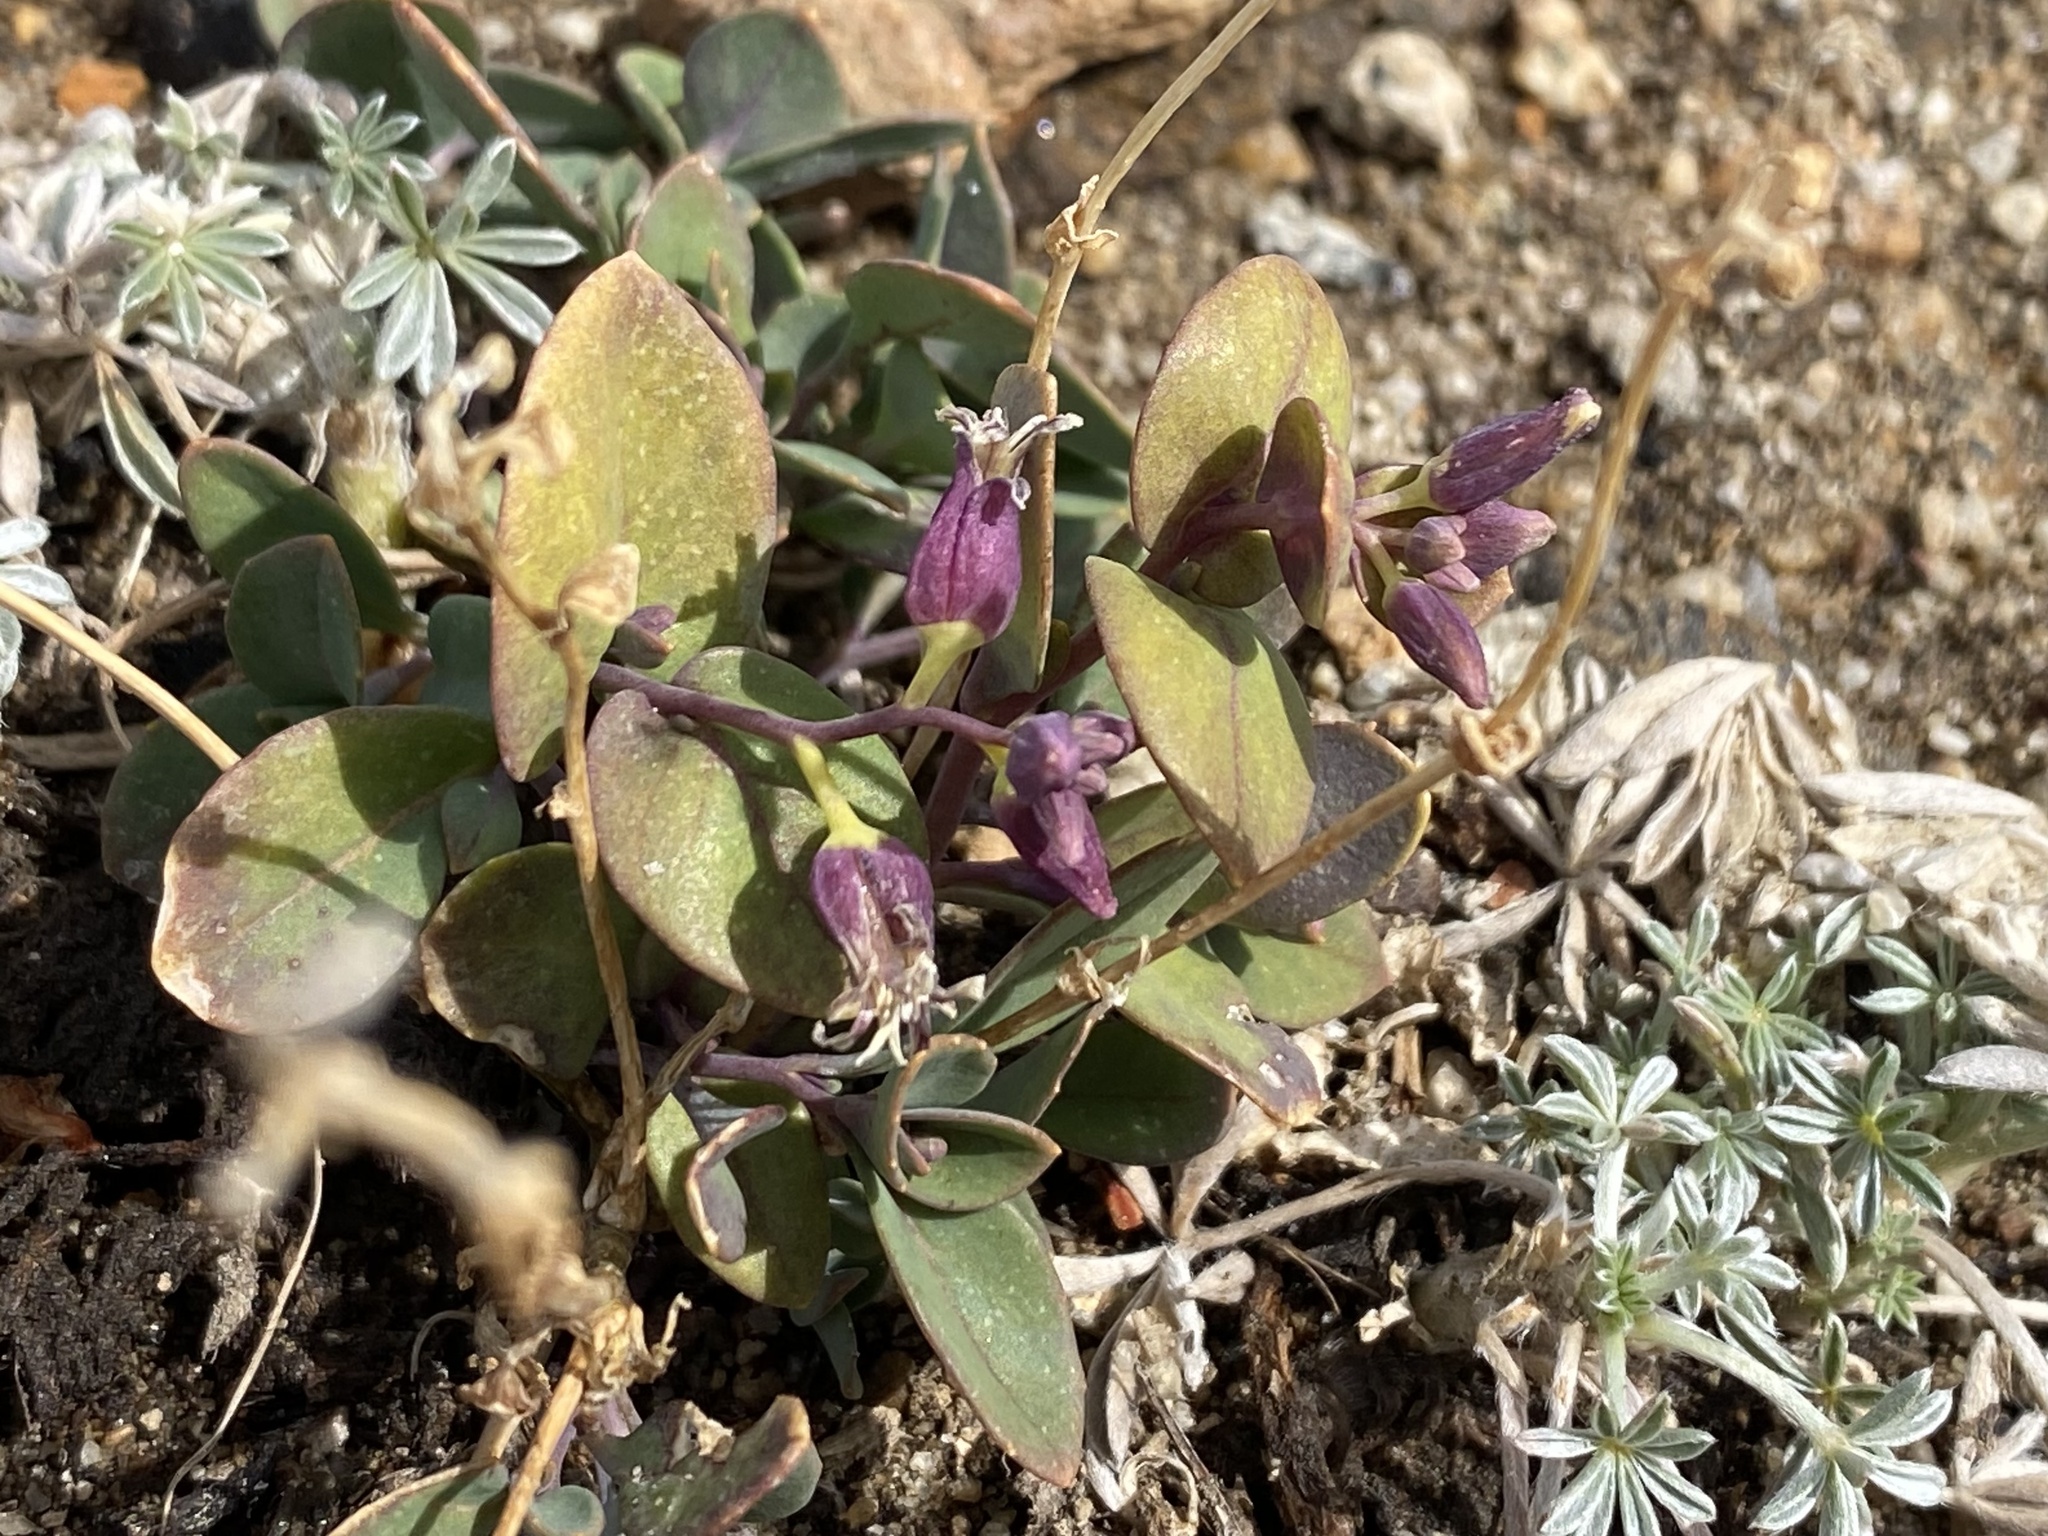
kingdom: Plantae
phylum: Tracheophyta
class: Magnoliopsida
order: Brassicales
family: Brassicaceae
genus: Streptanthus
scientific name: Streptanthus tortuosus
